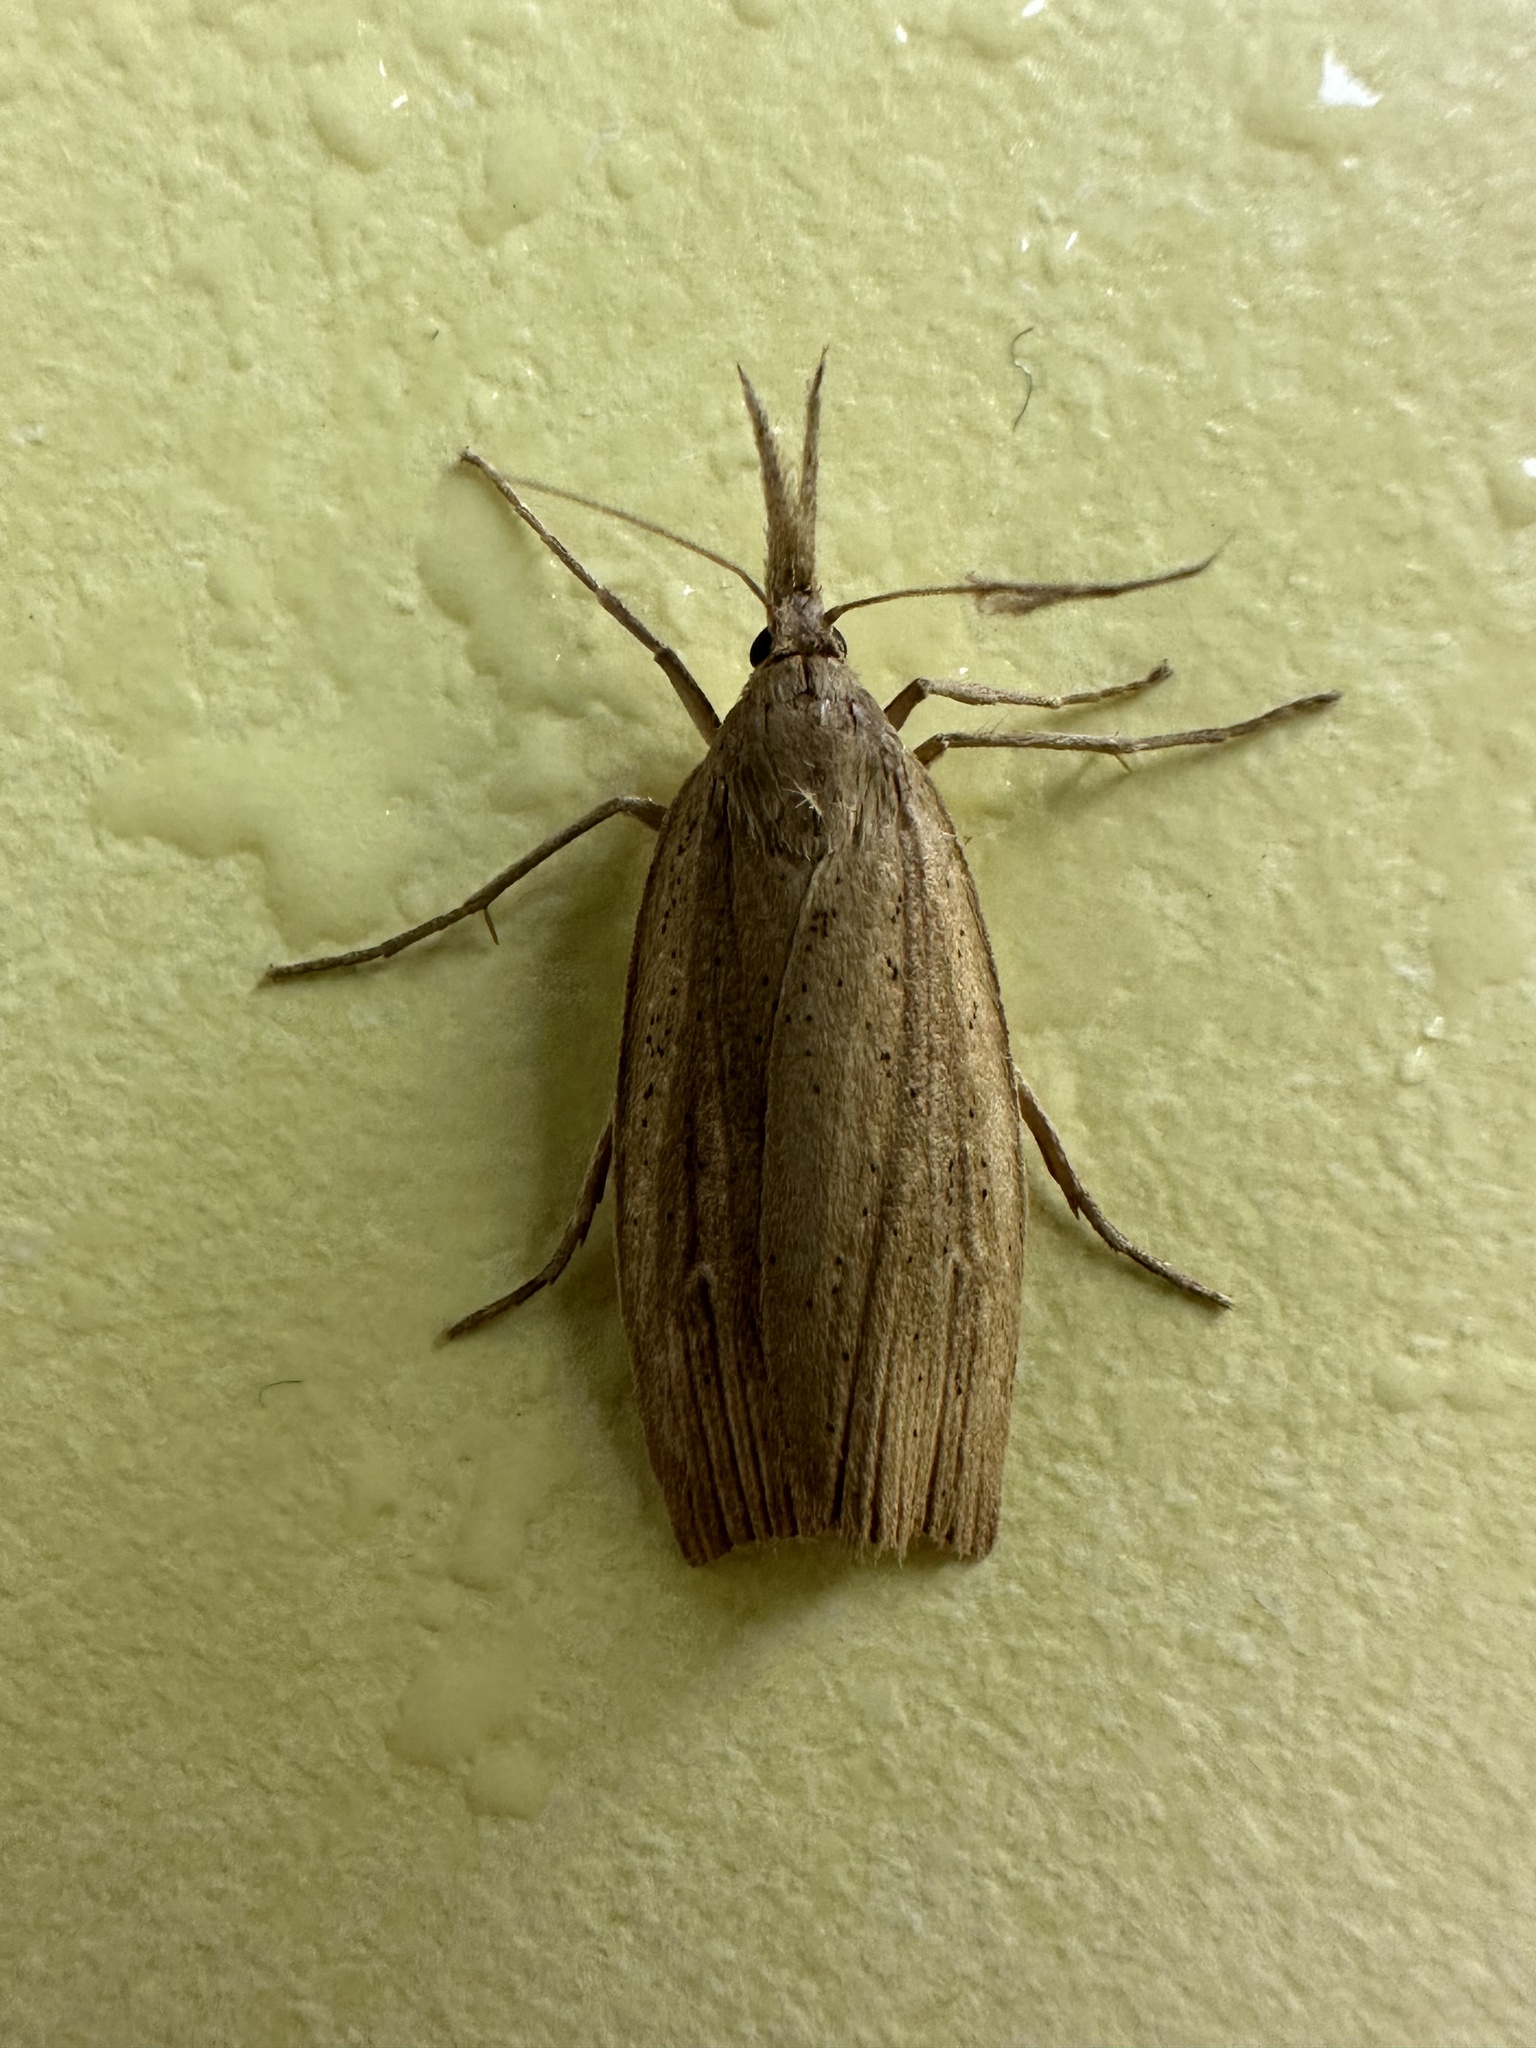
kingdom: Animalia
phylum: Arthropoda
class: Insecta
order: Lepidoptera
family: Crambidae
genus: Schoenobius
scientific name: Schoenobius gigantella
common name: Giant water-veneer
